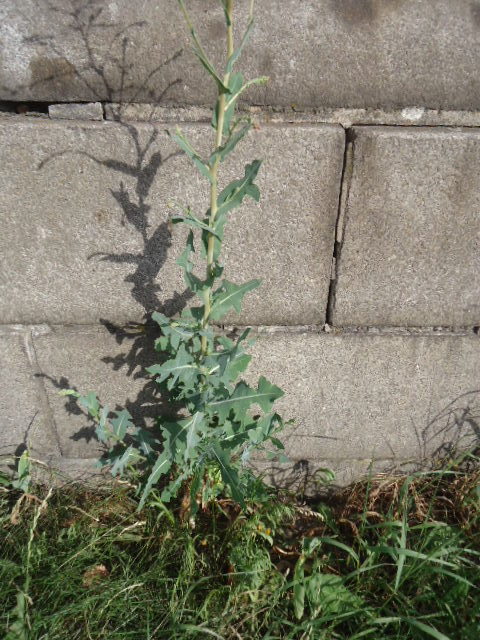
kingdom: Plantae
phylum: Tracheophyta
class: Magnoliopsida
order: Asterales
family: Asteraceae
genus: Lactuca
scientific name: Lactuca serriola
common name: Prickly lettuce
